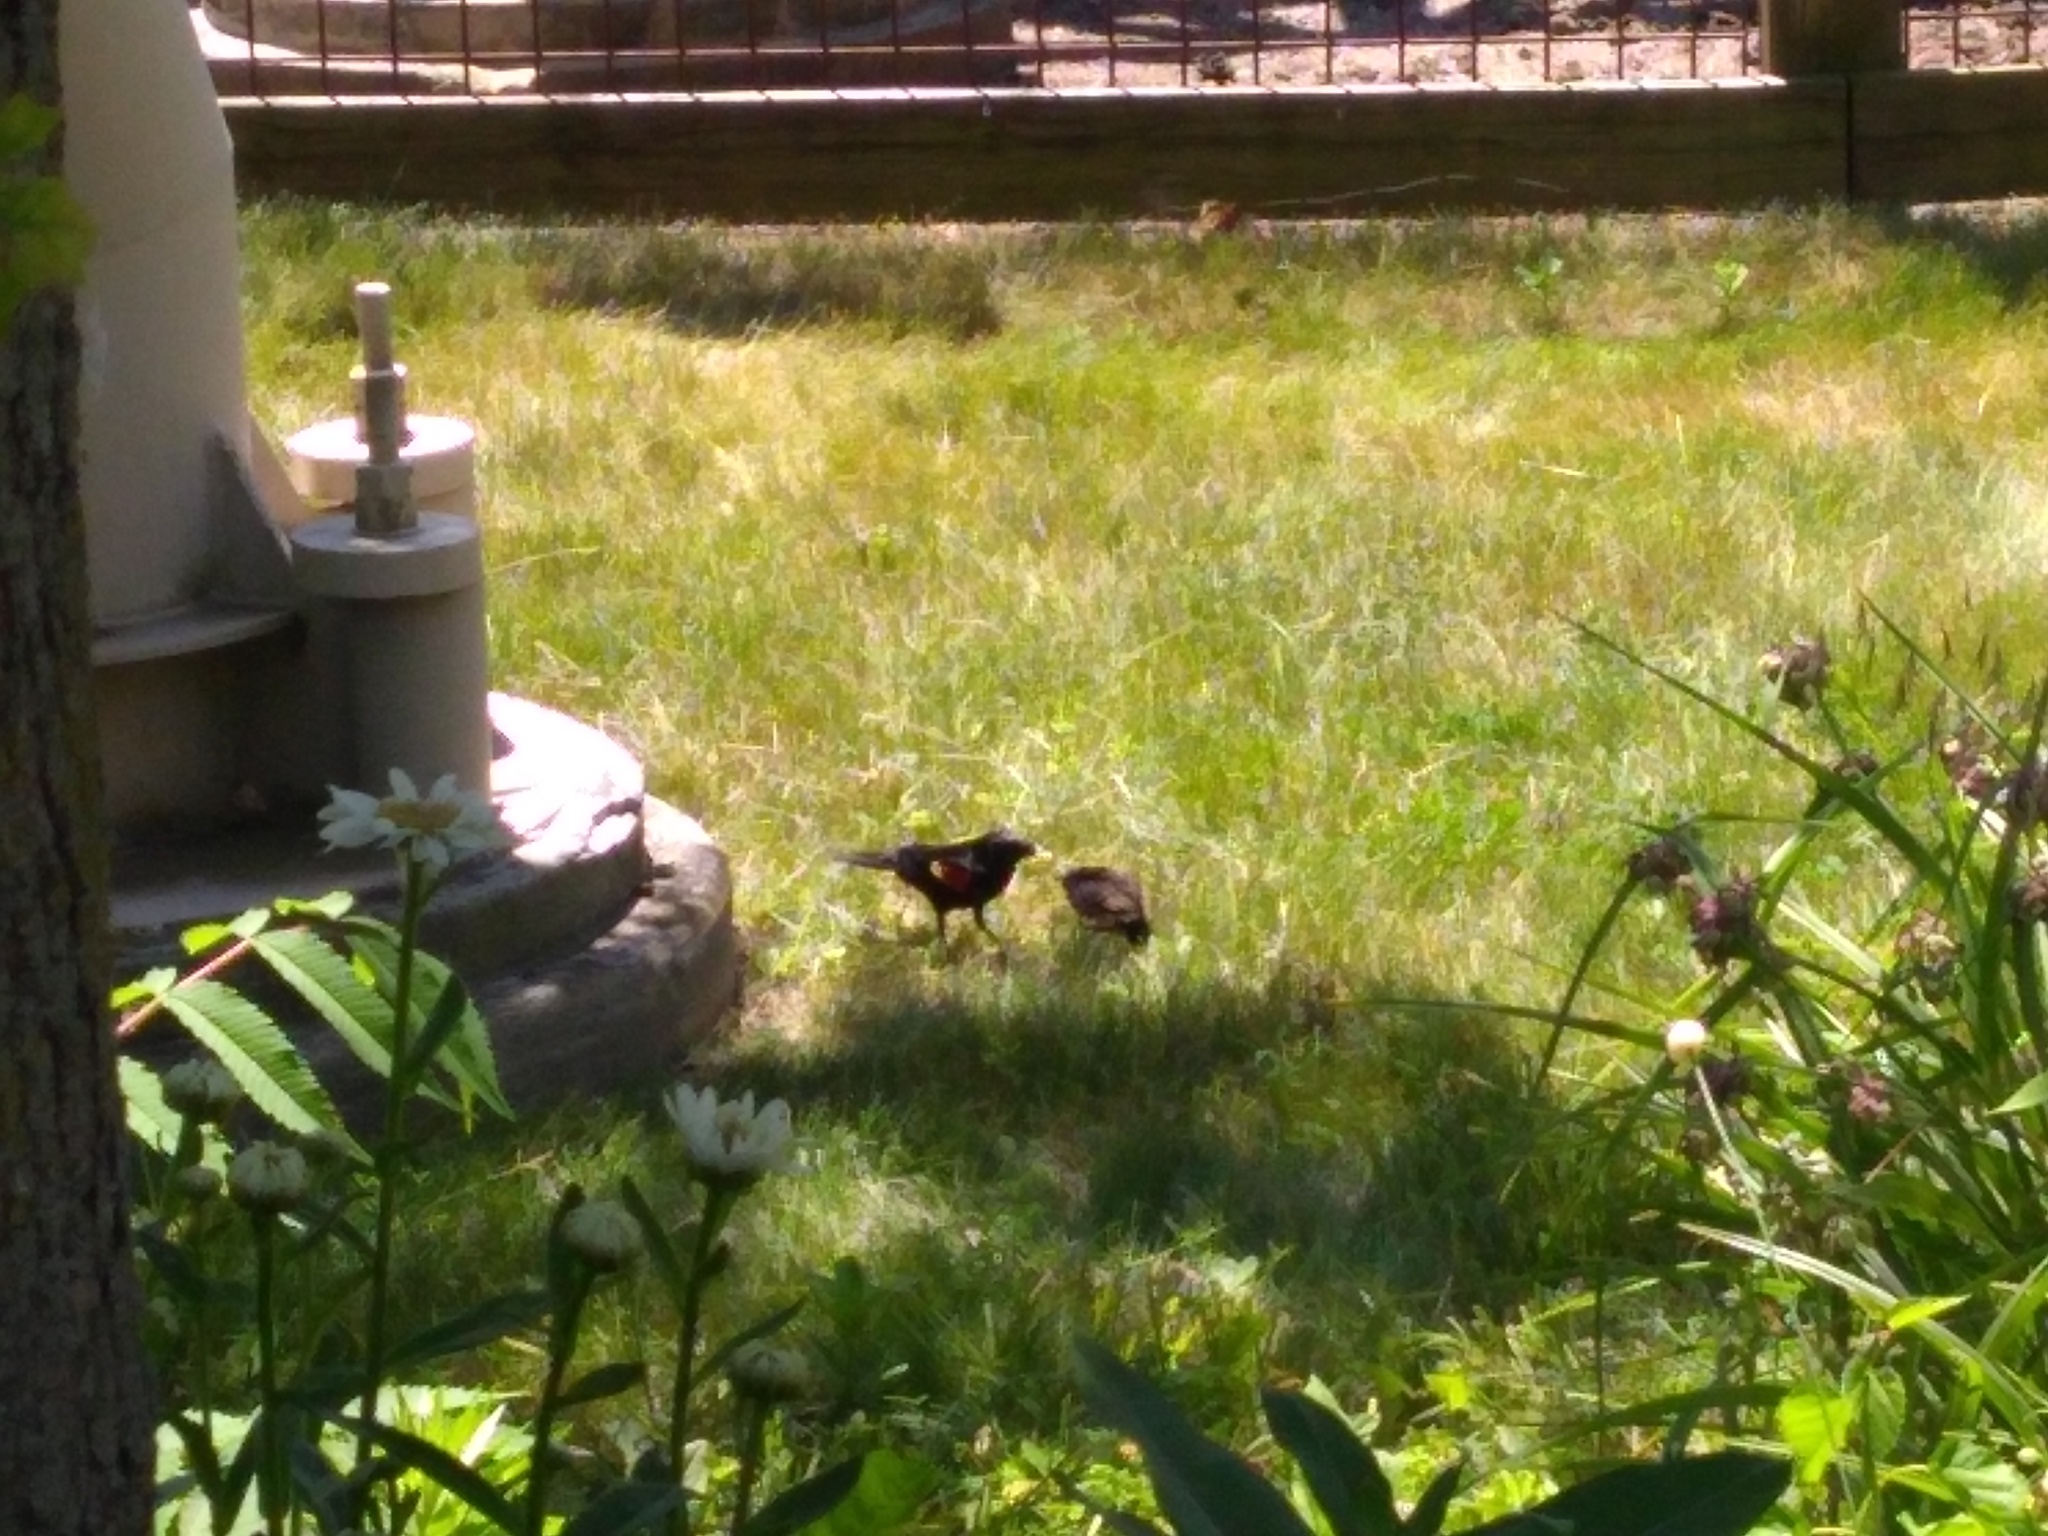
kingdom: Animalia
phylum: Chordata
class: Aves
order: Passeriformes
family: Icteridae
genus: Agelaius
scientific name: Agelaius phoeniceus
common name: Red-winged blackbird
